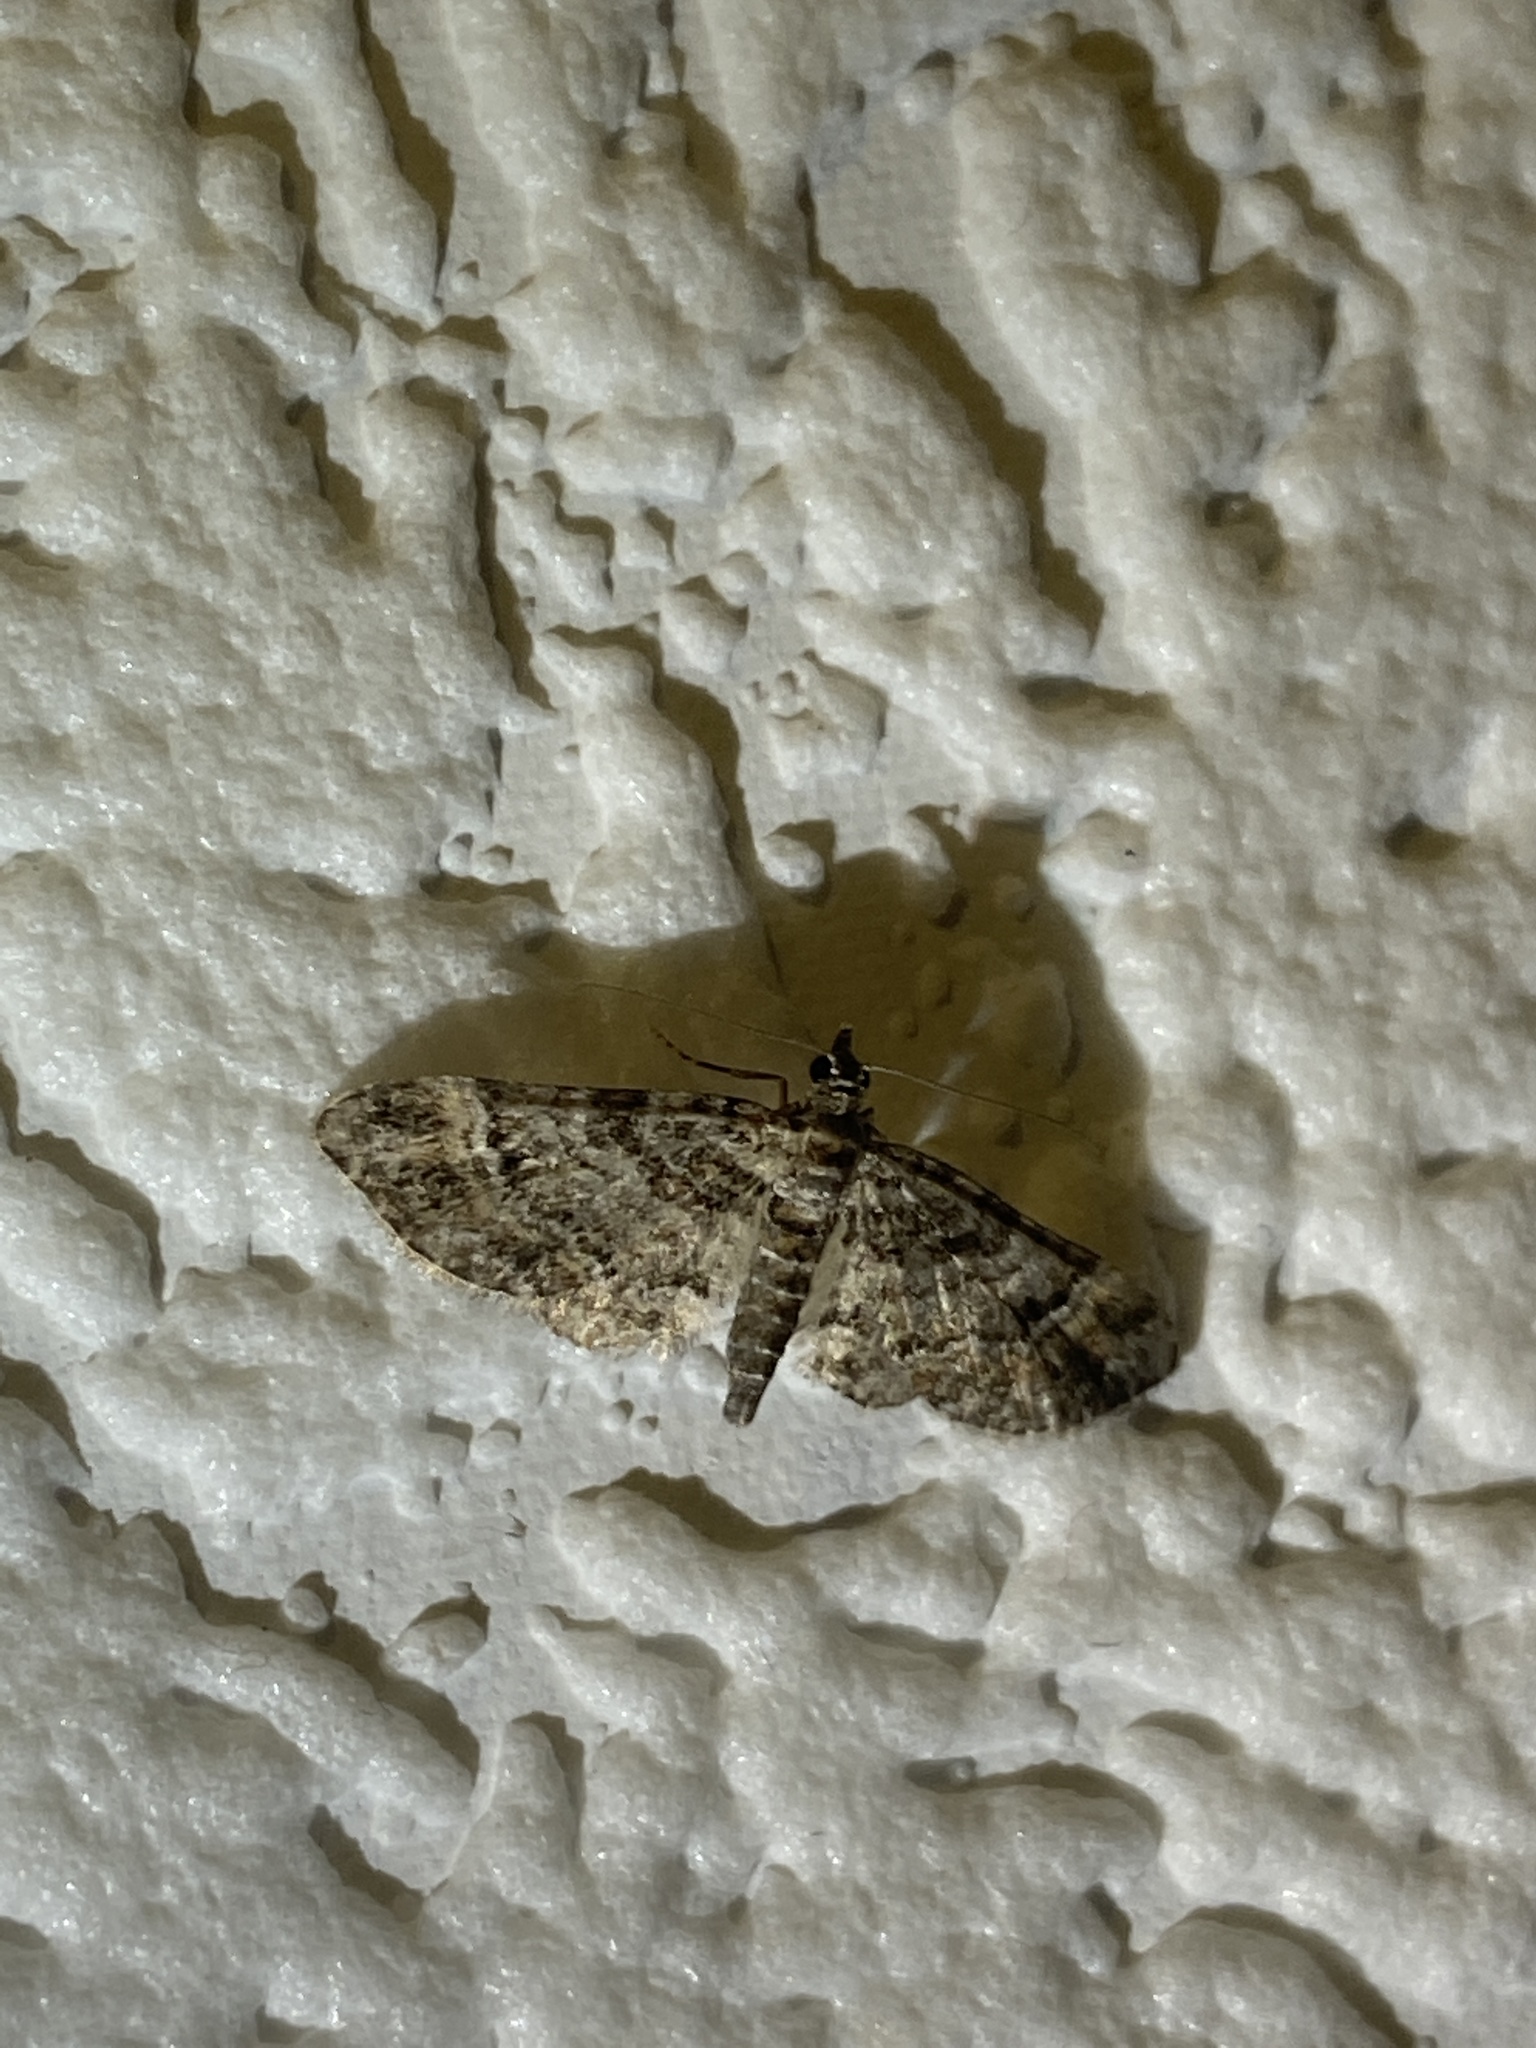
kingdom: Animalia
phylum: Arthropoda
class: Insecta
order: Lepidoptera
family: Geometridae
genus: Gymnoscelis
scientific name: Gymnoscelis rufifasciata
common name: Double-striped pug
